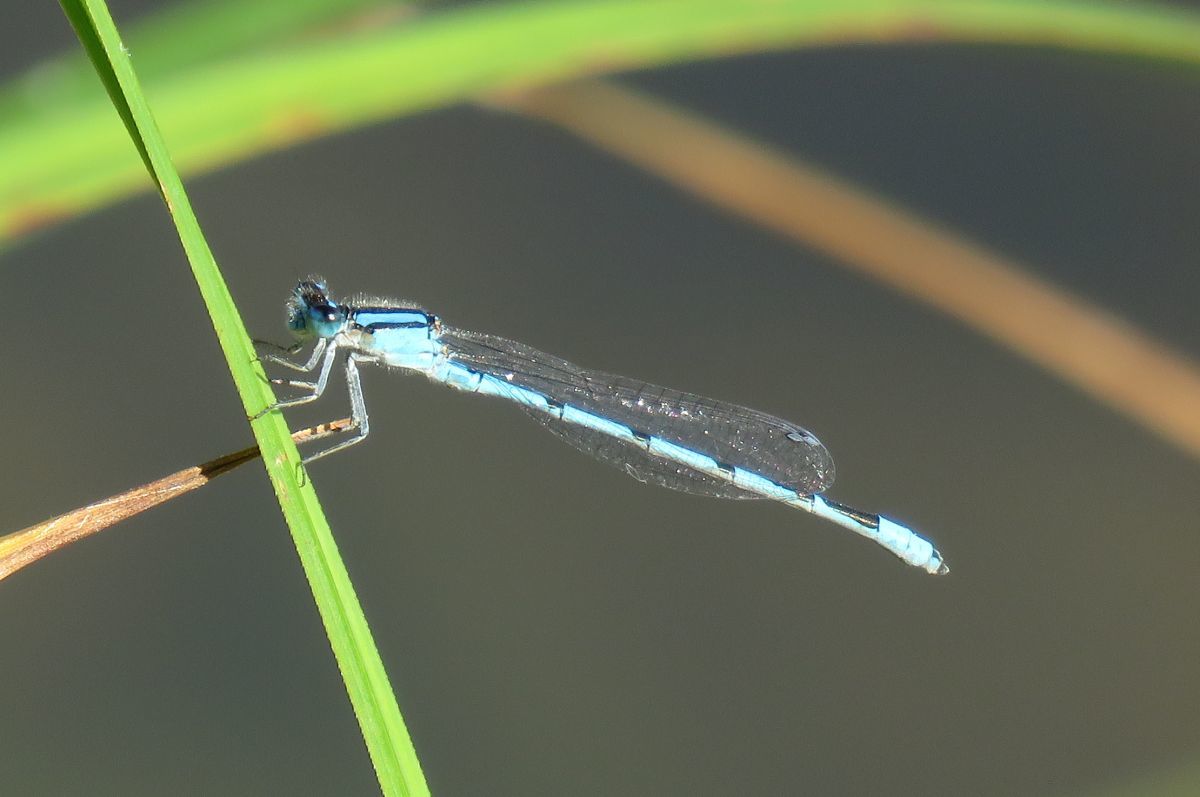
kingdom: Animalia
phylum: Arthropoda
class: Insecta
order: Odonata
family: Coenagrionidae
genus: Enallagma
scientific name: Enallagma civile
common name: Damselfly
